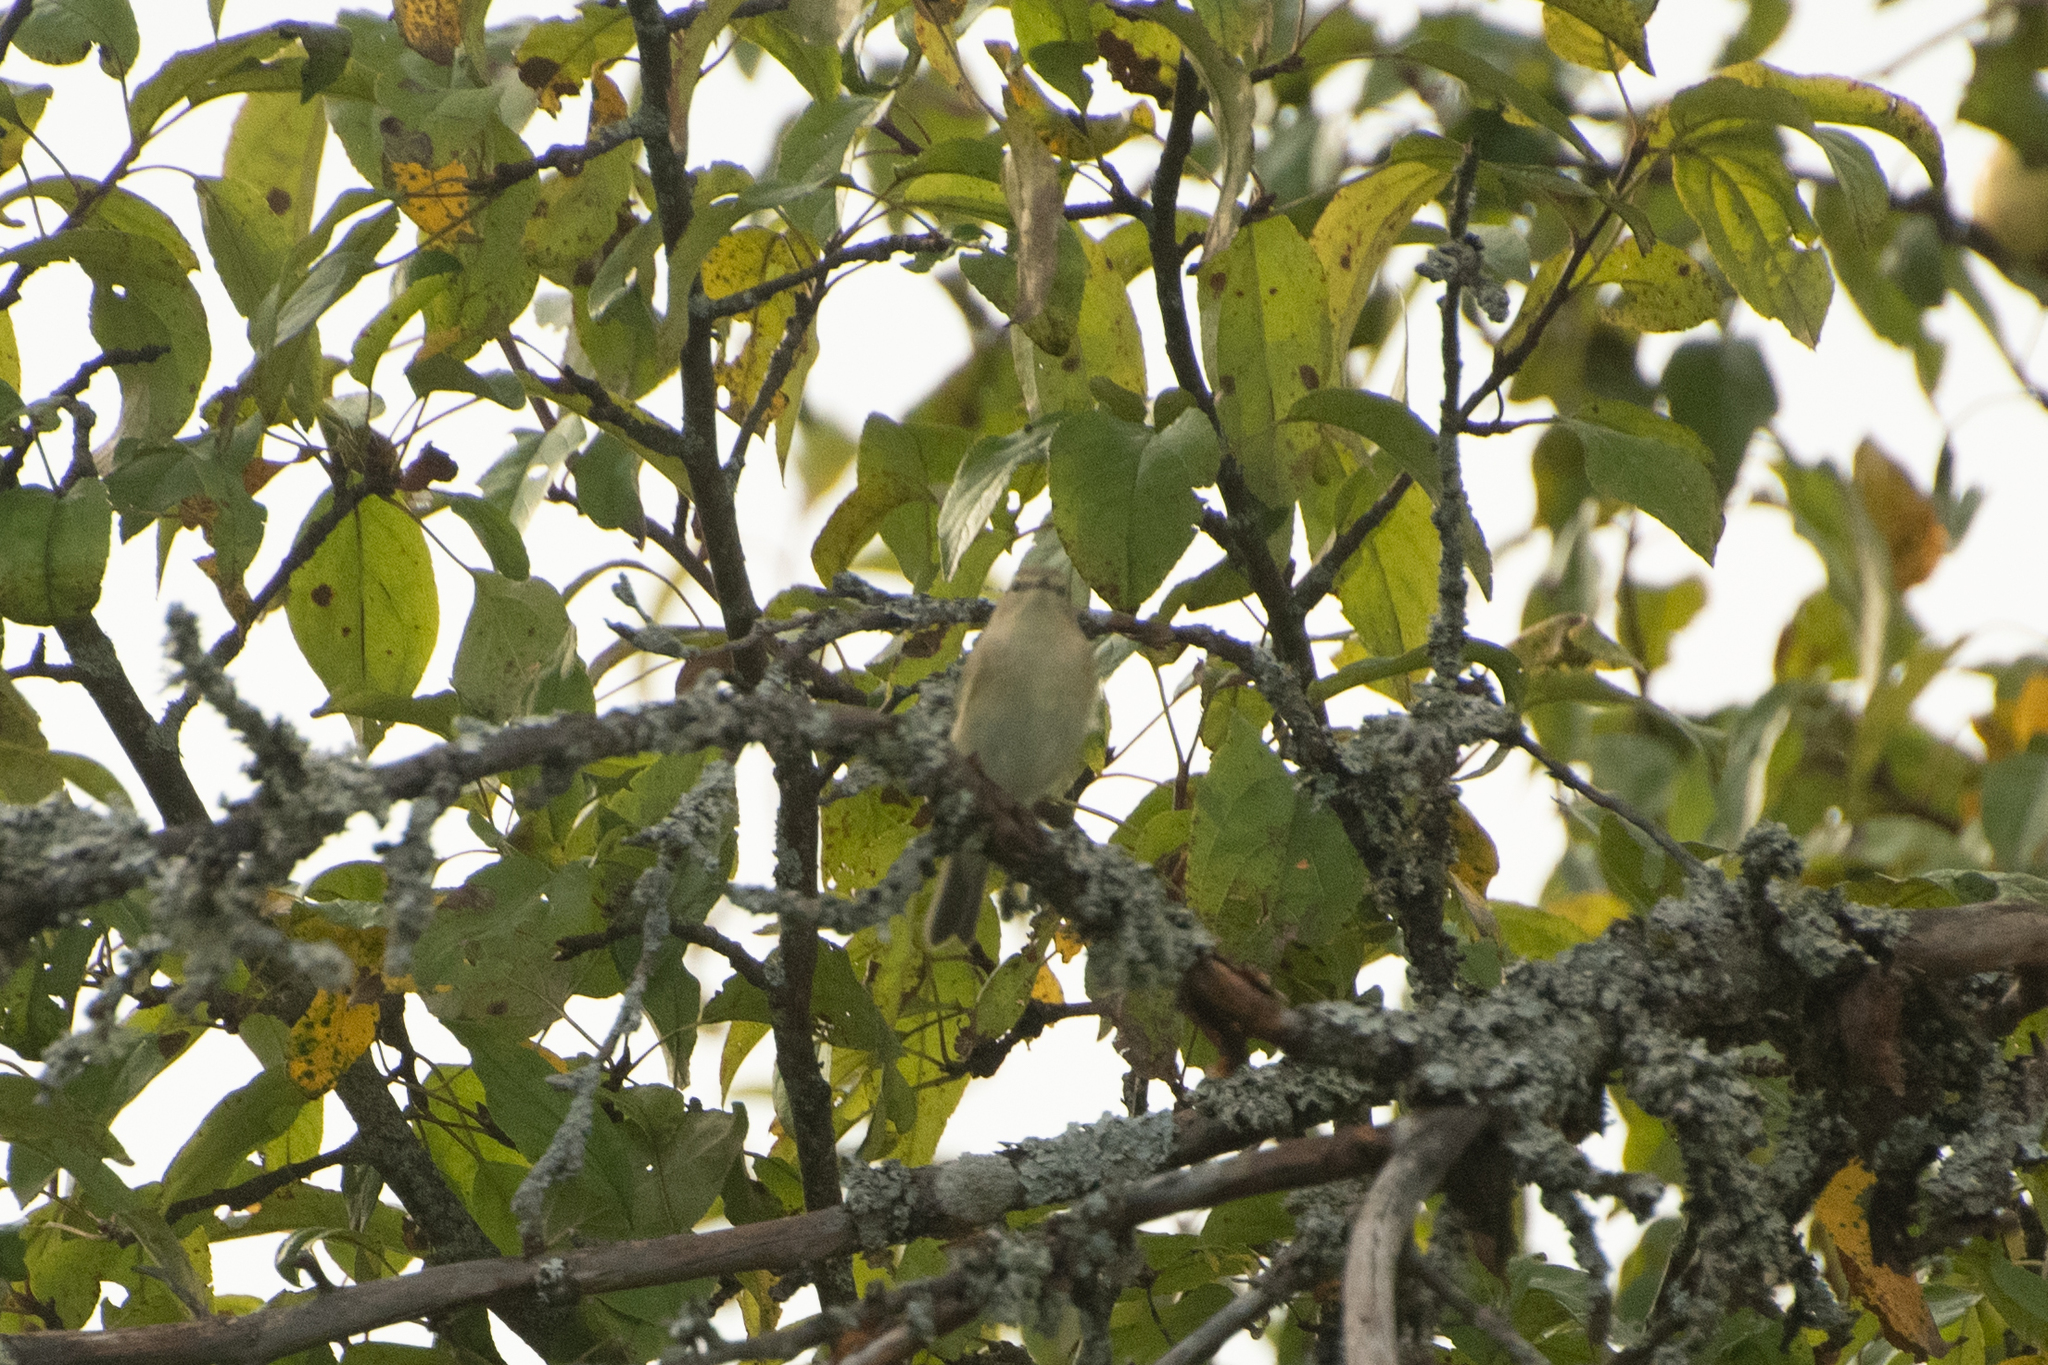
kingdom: Animalia
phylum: Chordata
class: Aves
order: Passeriformes
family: Phylloscopidae
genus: Phylloscopus
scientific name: Phylloscopus collybita
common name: Common chiffchaff
